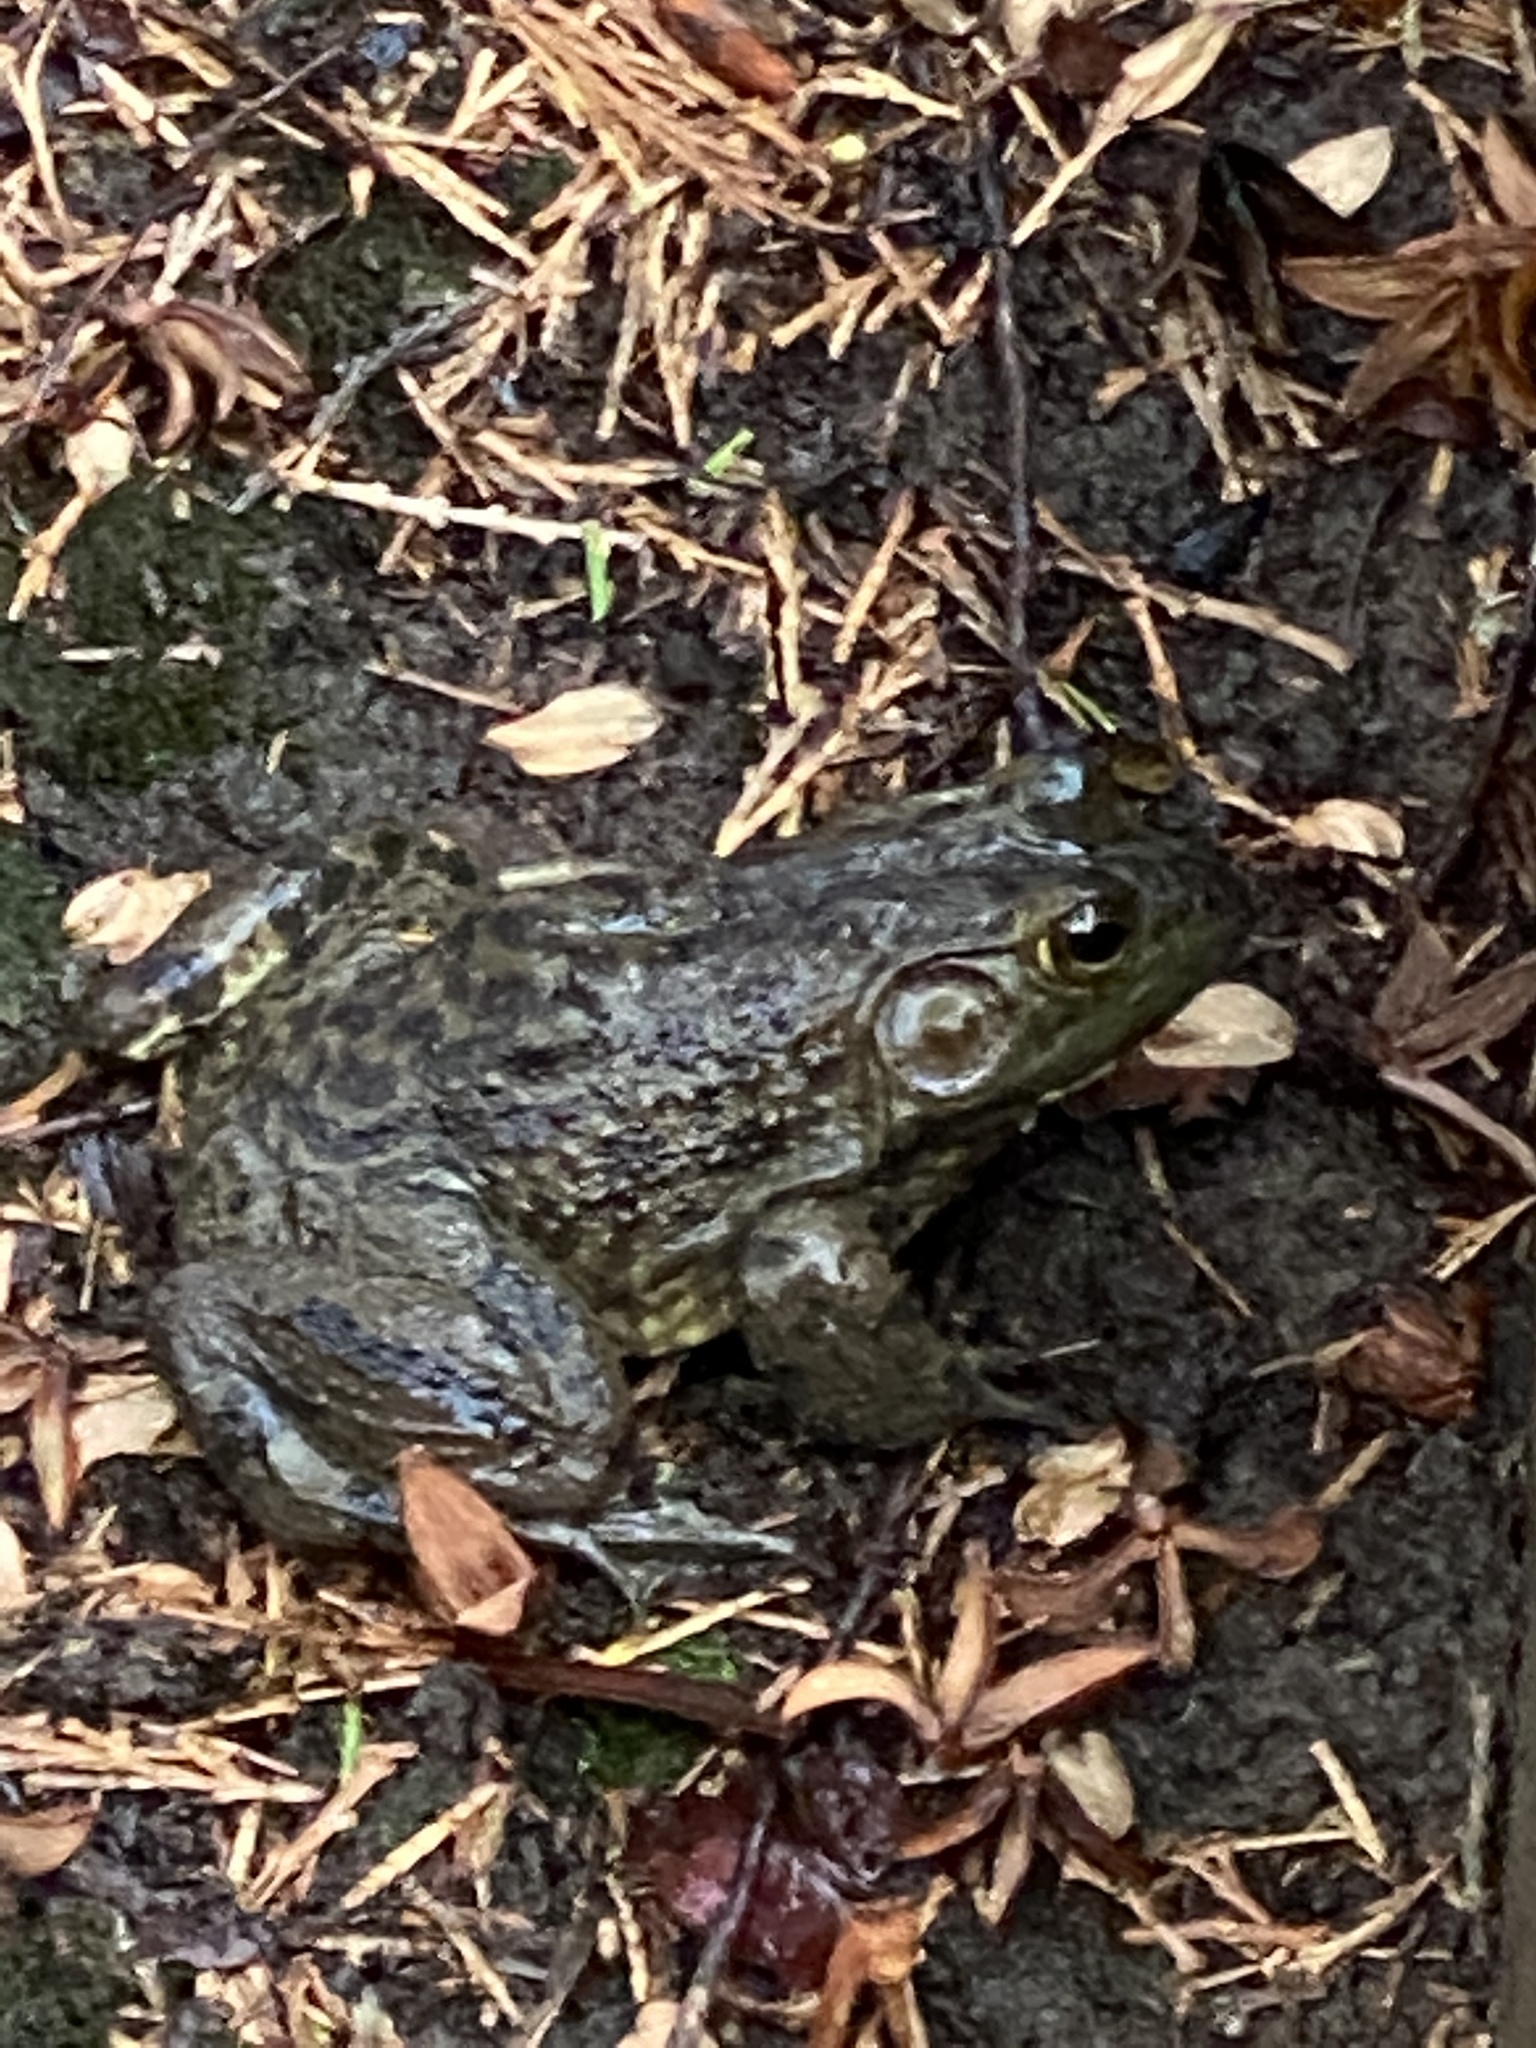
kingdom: Animalia
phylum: Chordata
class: Amphibia
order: Anura
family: Ranidae
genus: Lithobates
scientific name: Lithobates catesbeianus
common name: American bullfrog
